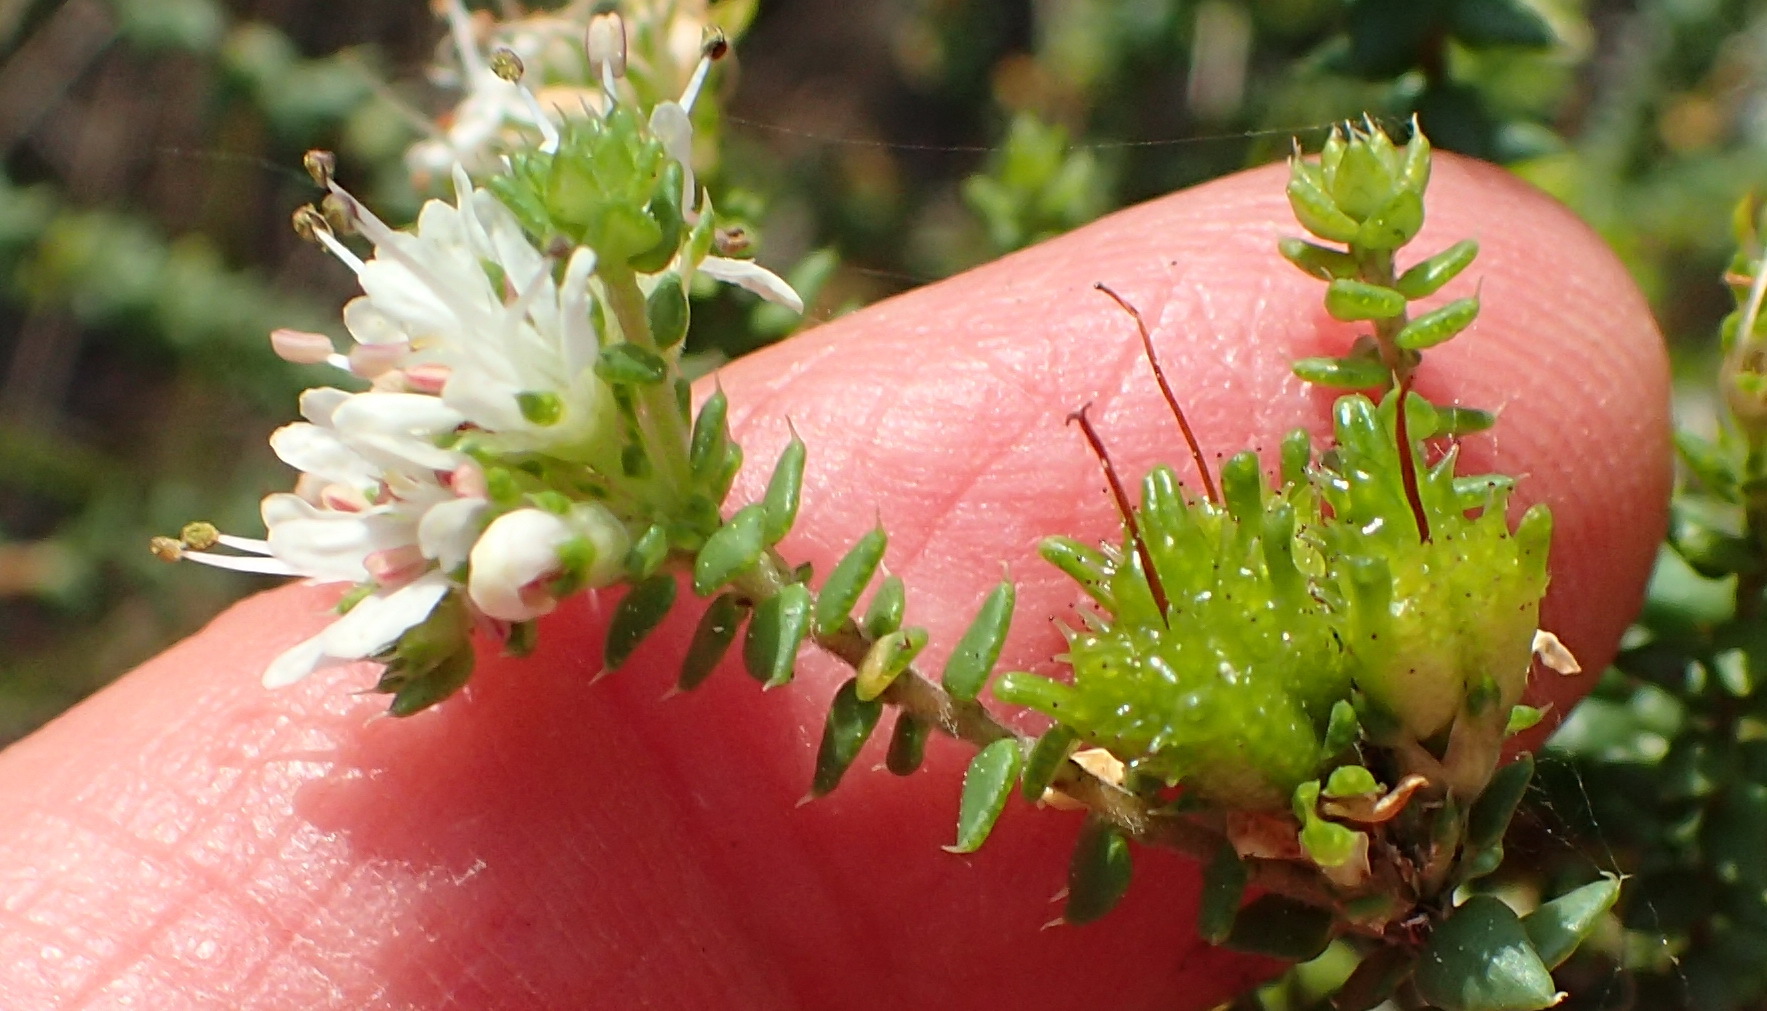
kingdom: Plantae
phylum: Tracheophyta
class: Magnoliopsida
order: Sapindales
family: Rutaceae
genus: Agathosma
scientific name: Agathosma apiculata
